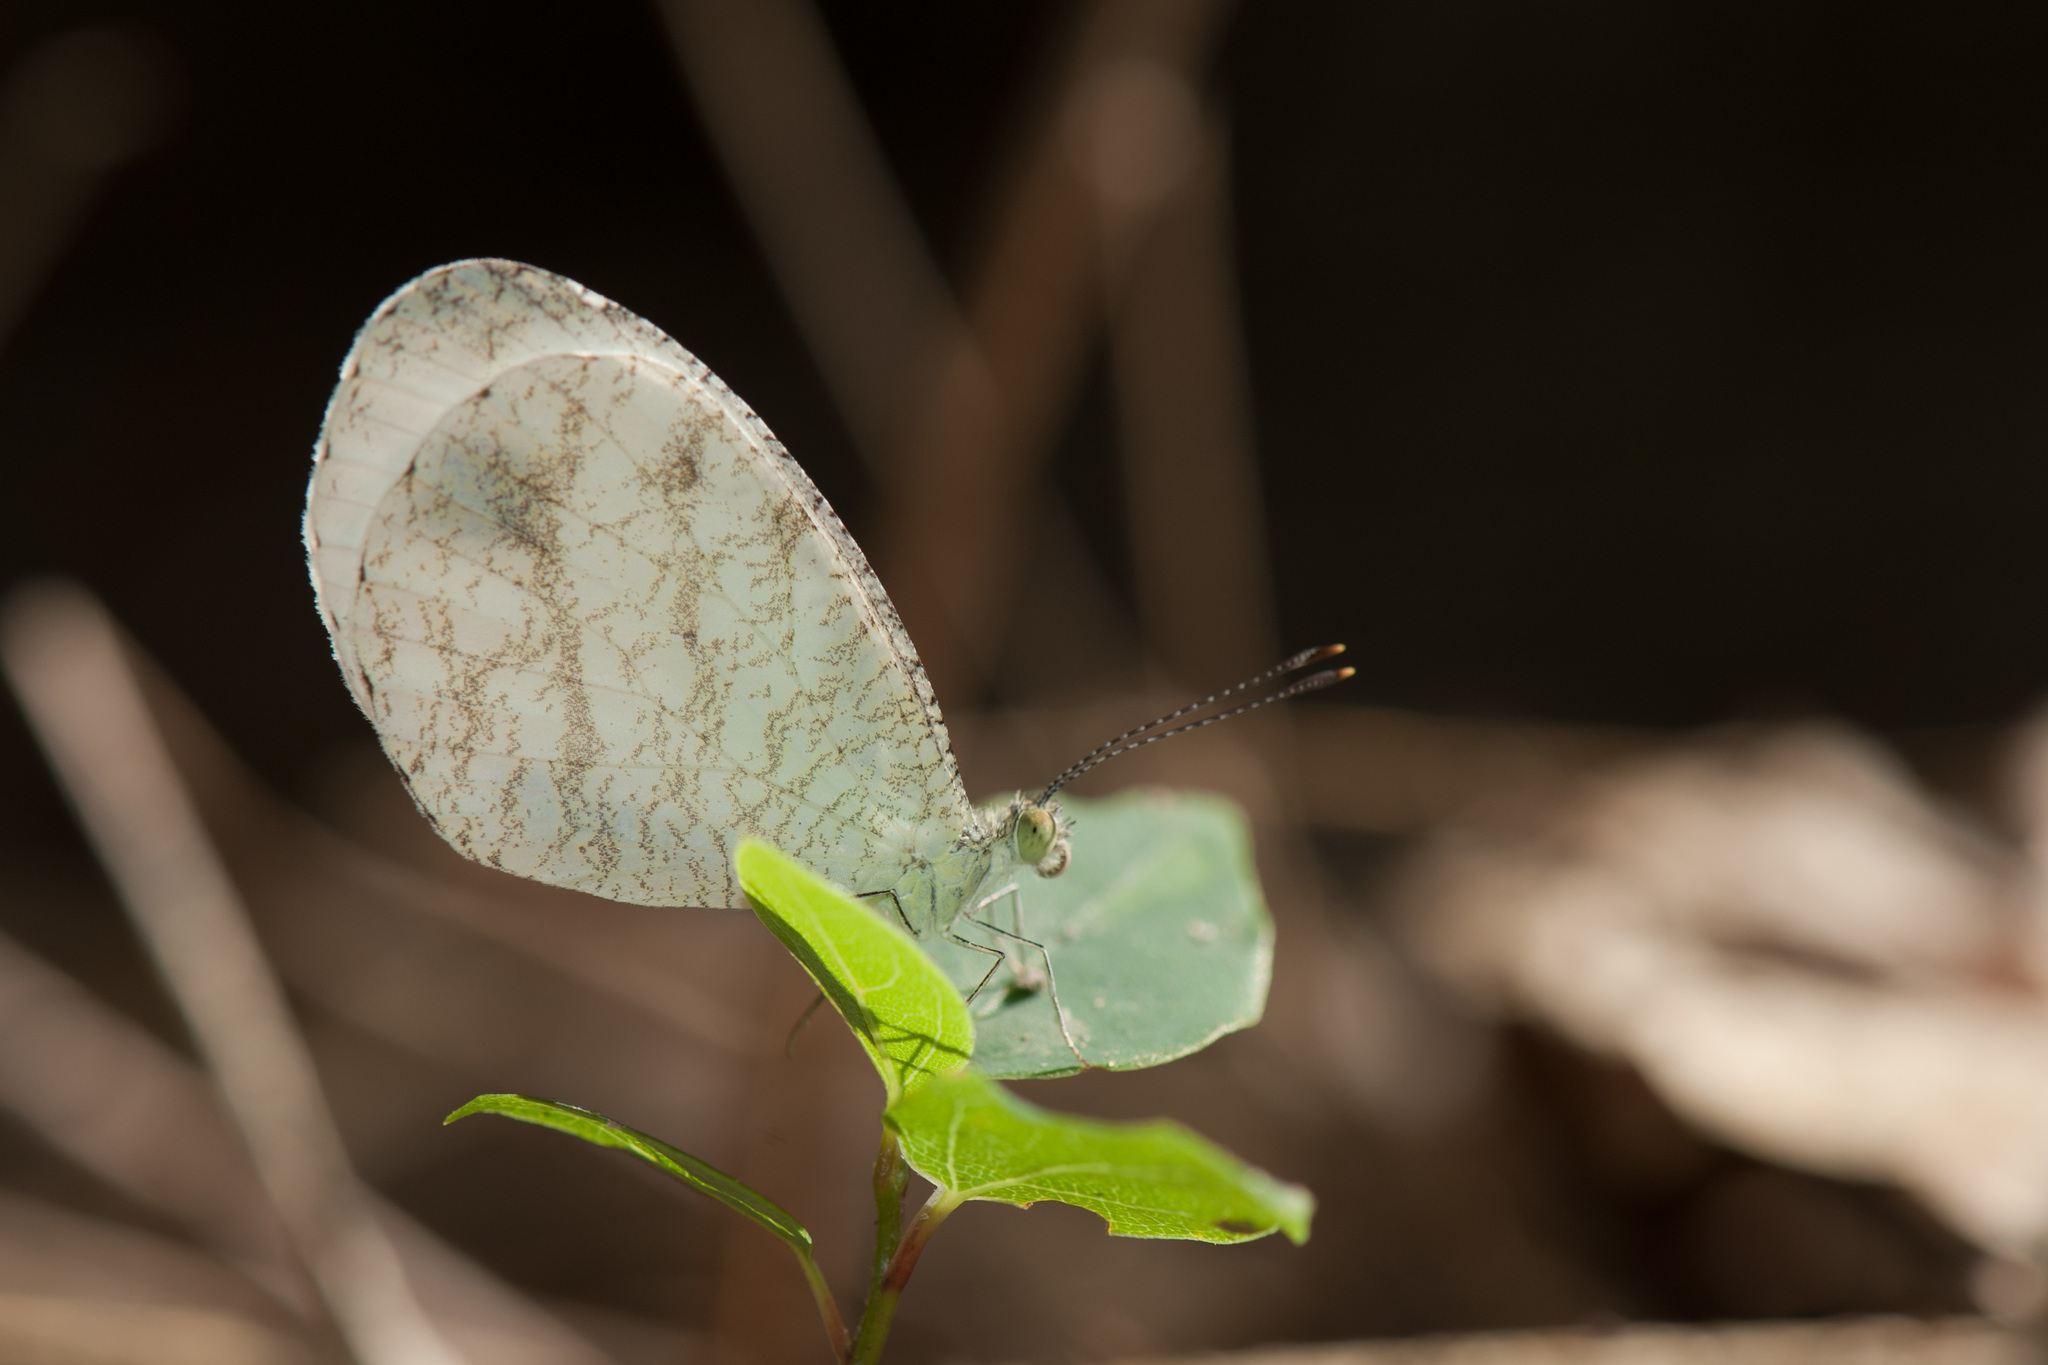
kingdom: Animalia
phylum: Arthropoda
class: Insecta
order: Lepidoptera
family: Pieridae
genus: Leptosia
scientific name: Leptosia nina
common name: Psyche
